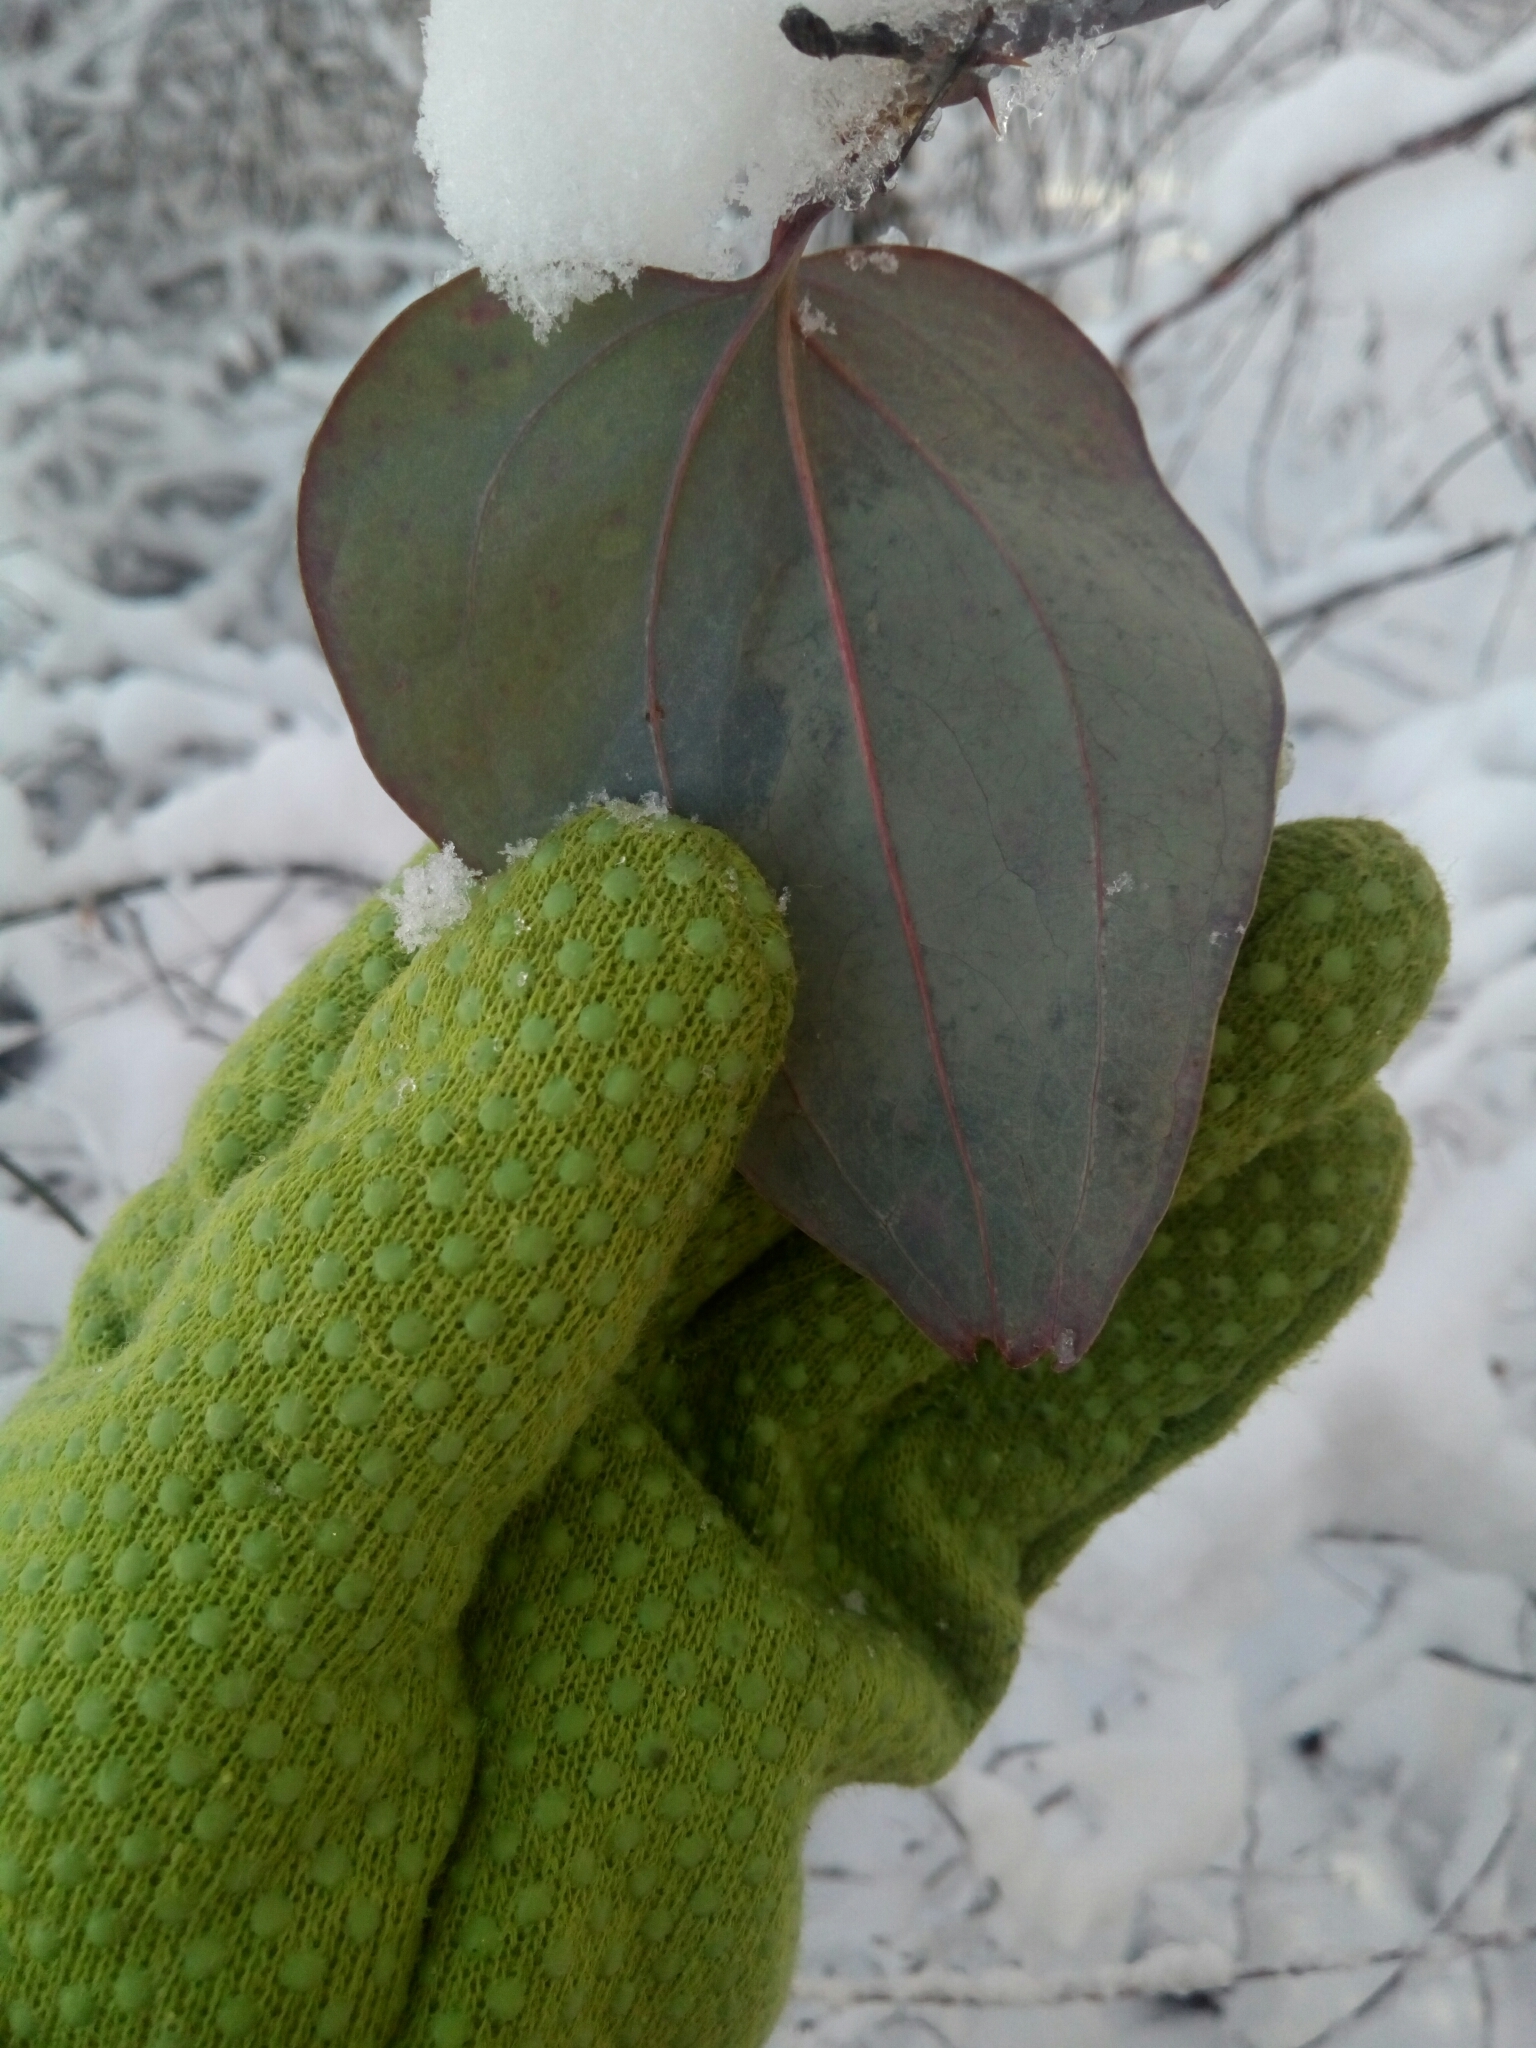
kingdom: Plantae
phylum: Tracheophyta
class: Liliopsida
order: Liliales
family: Smilacaceae
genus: Smilax
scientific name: Smilax glauca
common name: Cat greenbrier
